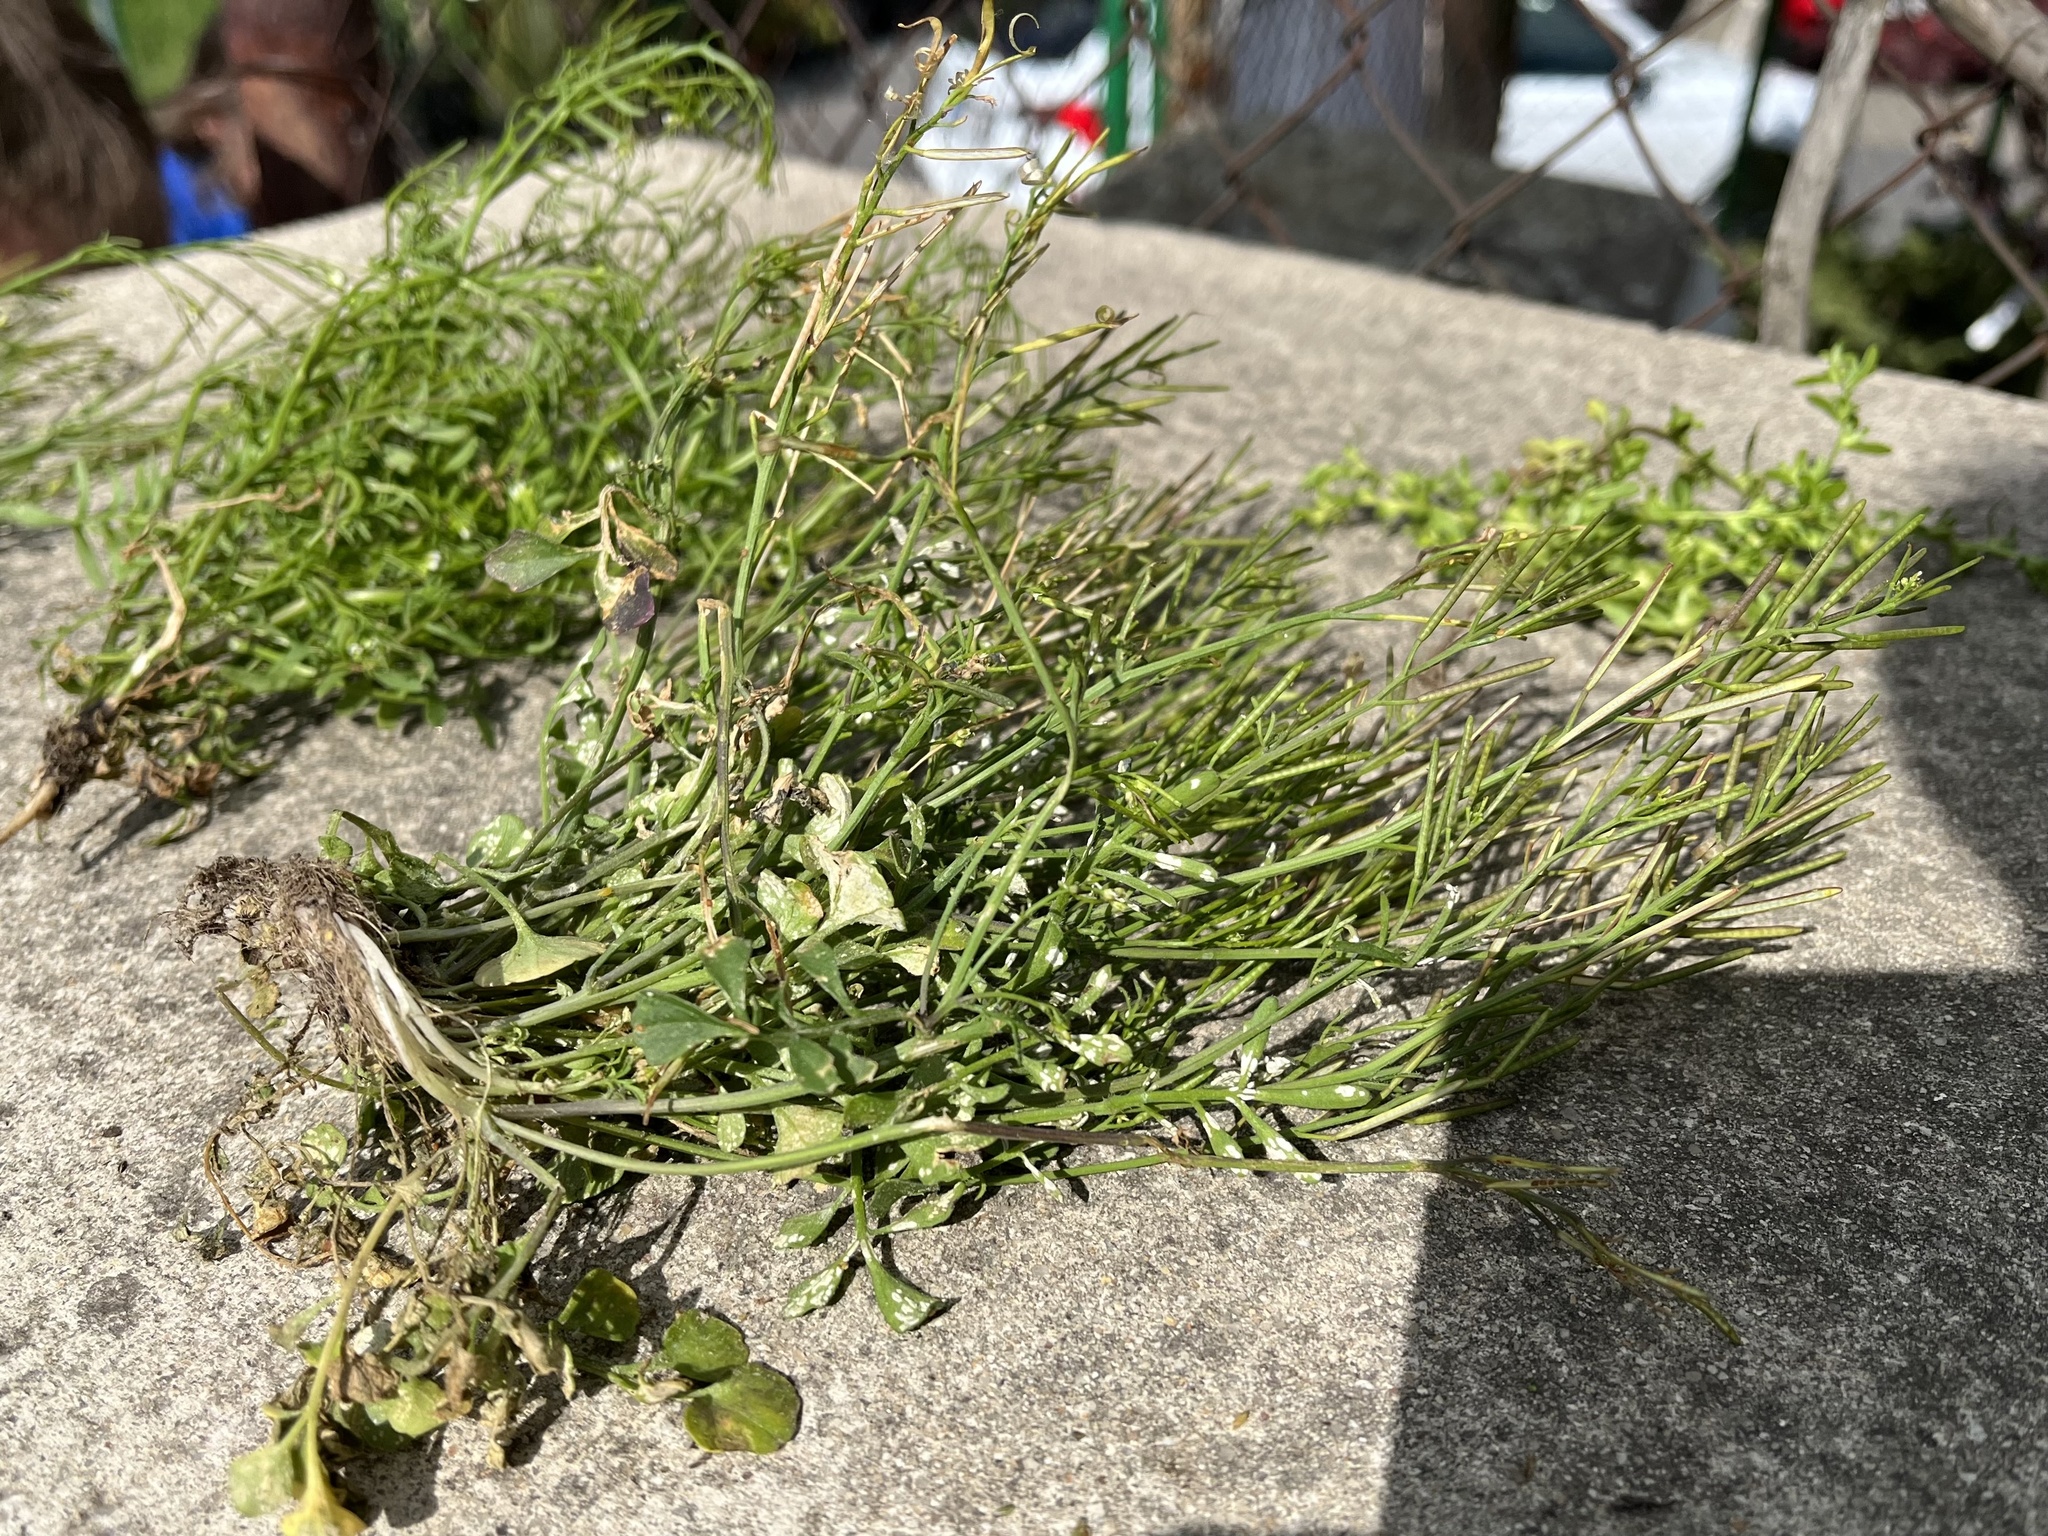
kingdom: Plantae
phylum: Tracheophyta
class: Magnoliopsida
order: Brassicales
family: Brassicaceae
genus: Cardamine
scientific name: Cardamine hirsuta
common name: Hairy bittercress
